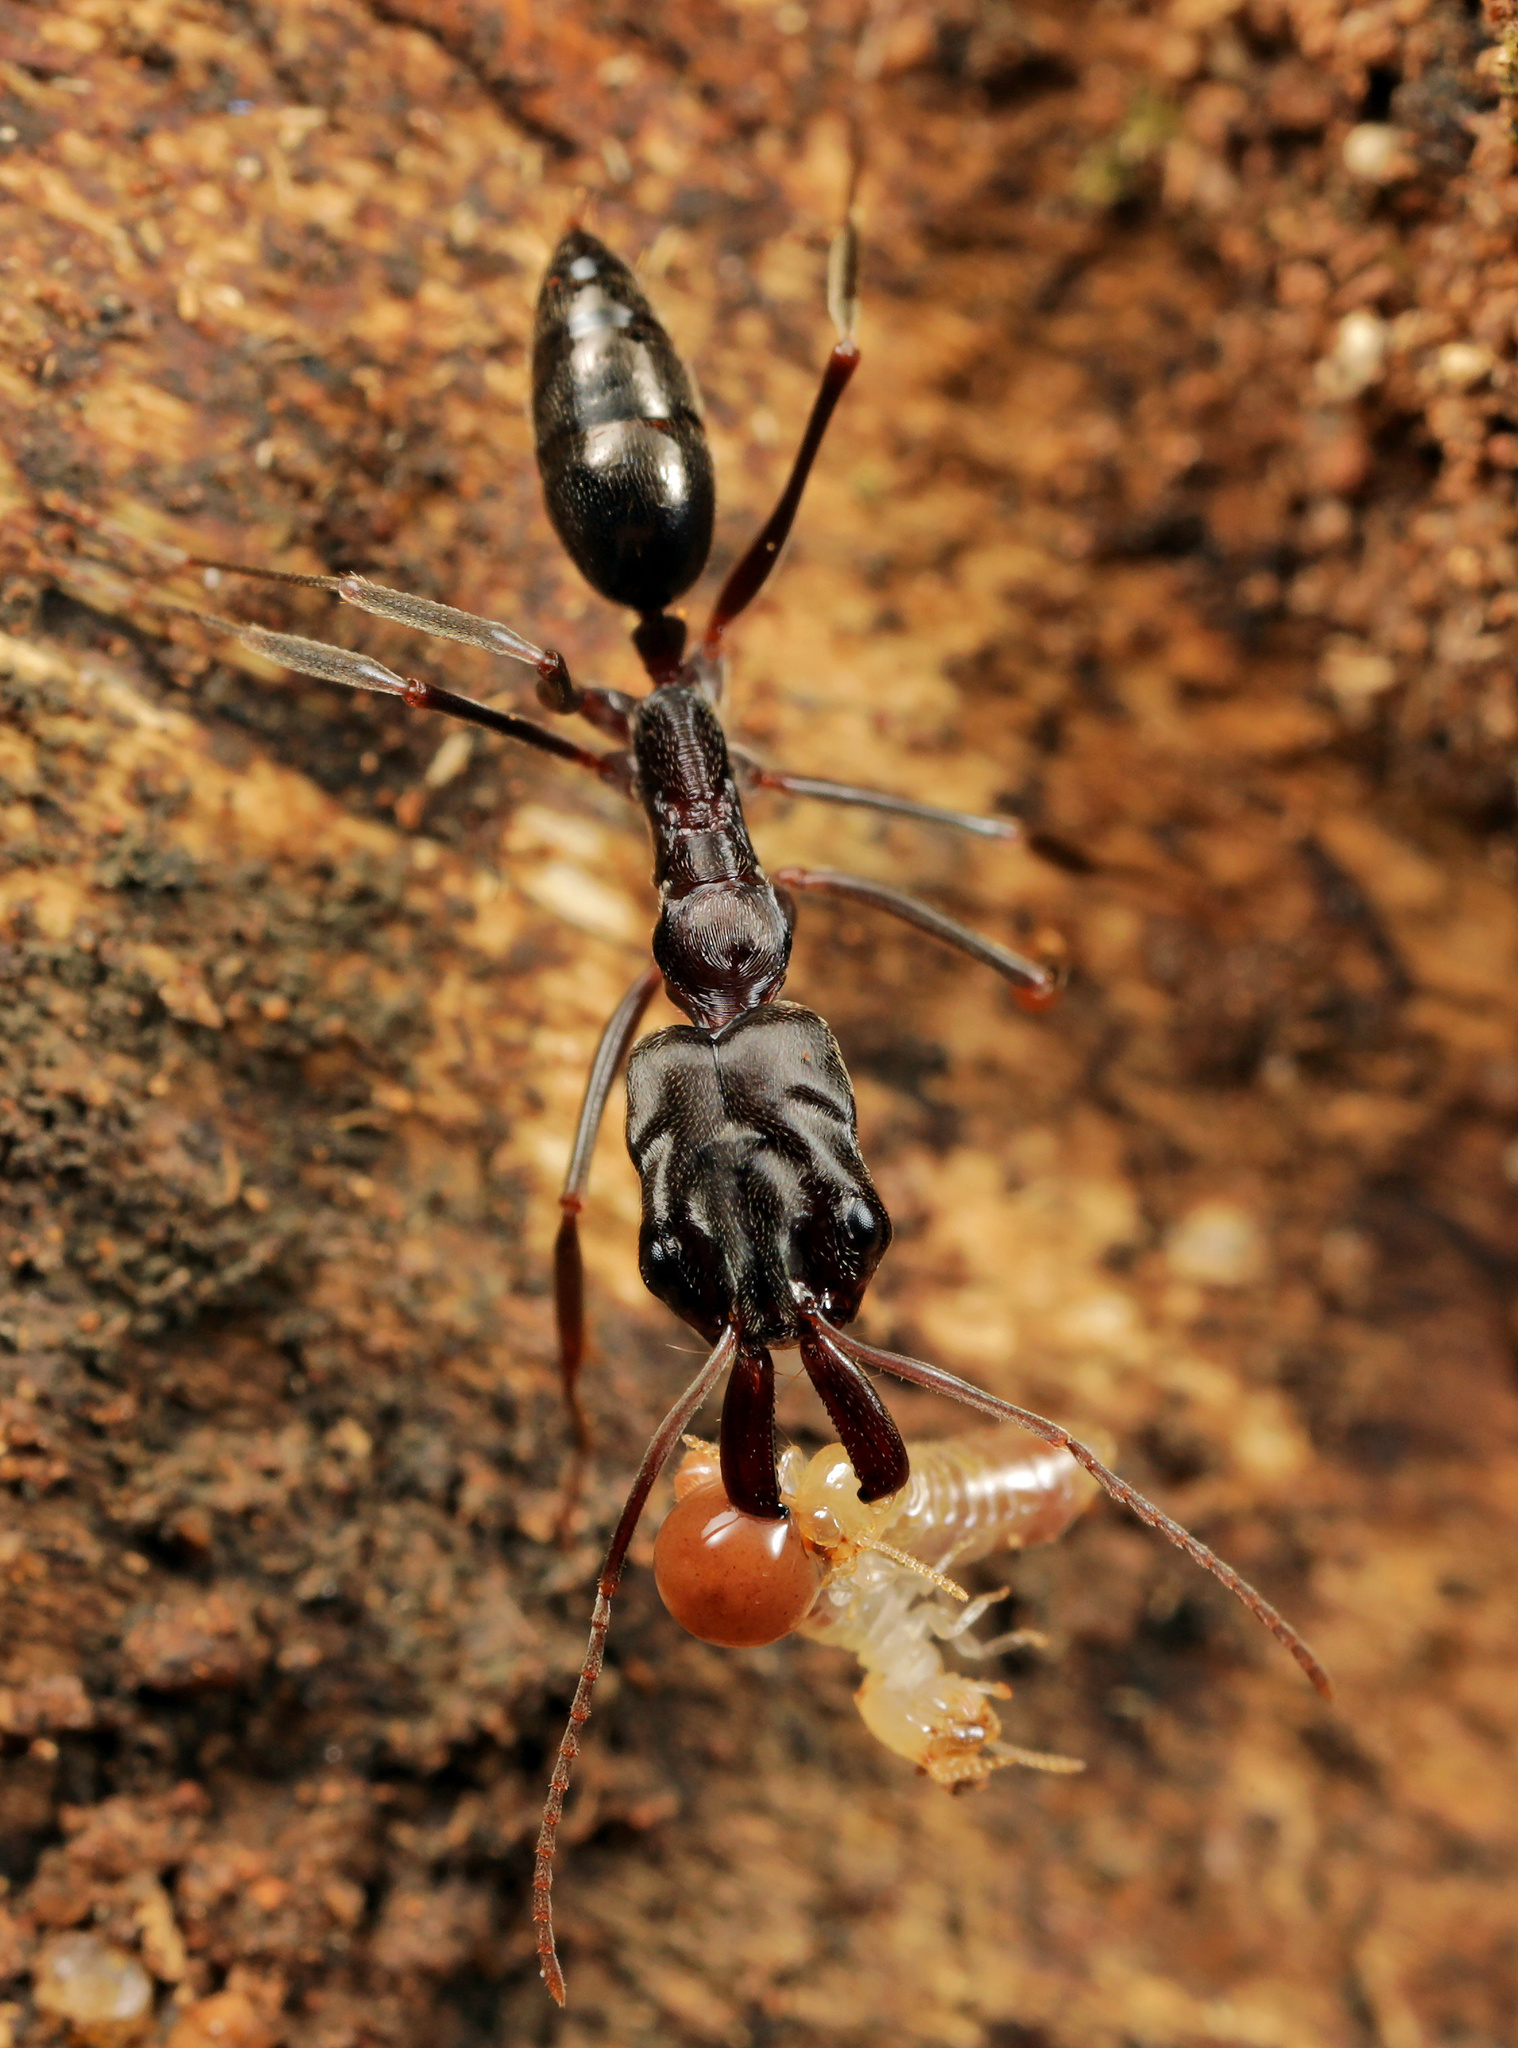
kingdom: Animalia
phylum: Arthropoda
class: Insecta
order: Hymenoptera
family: Formicidae
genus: Odontomachus
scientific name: Odontomachus troglodytes
